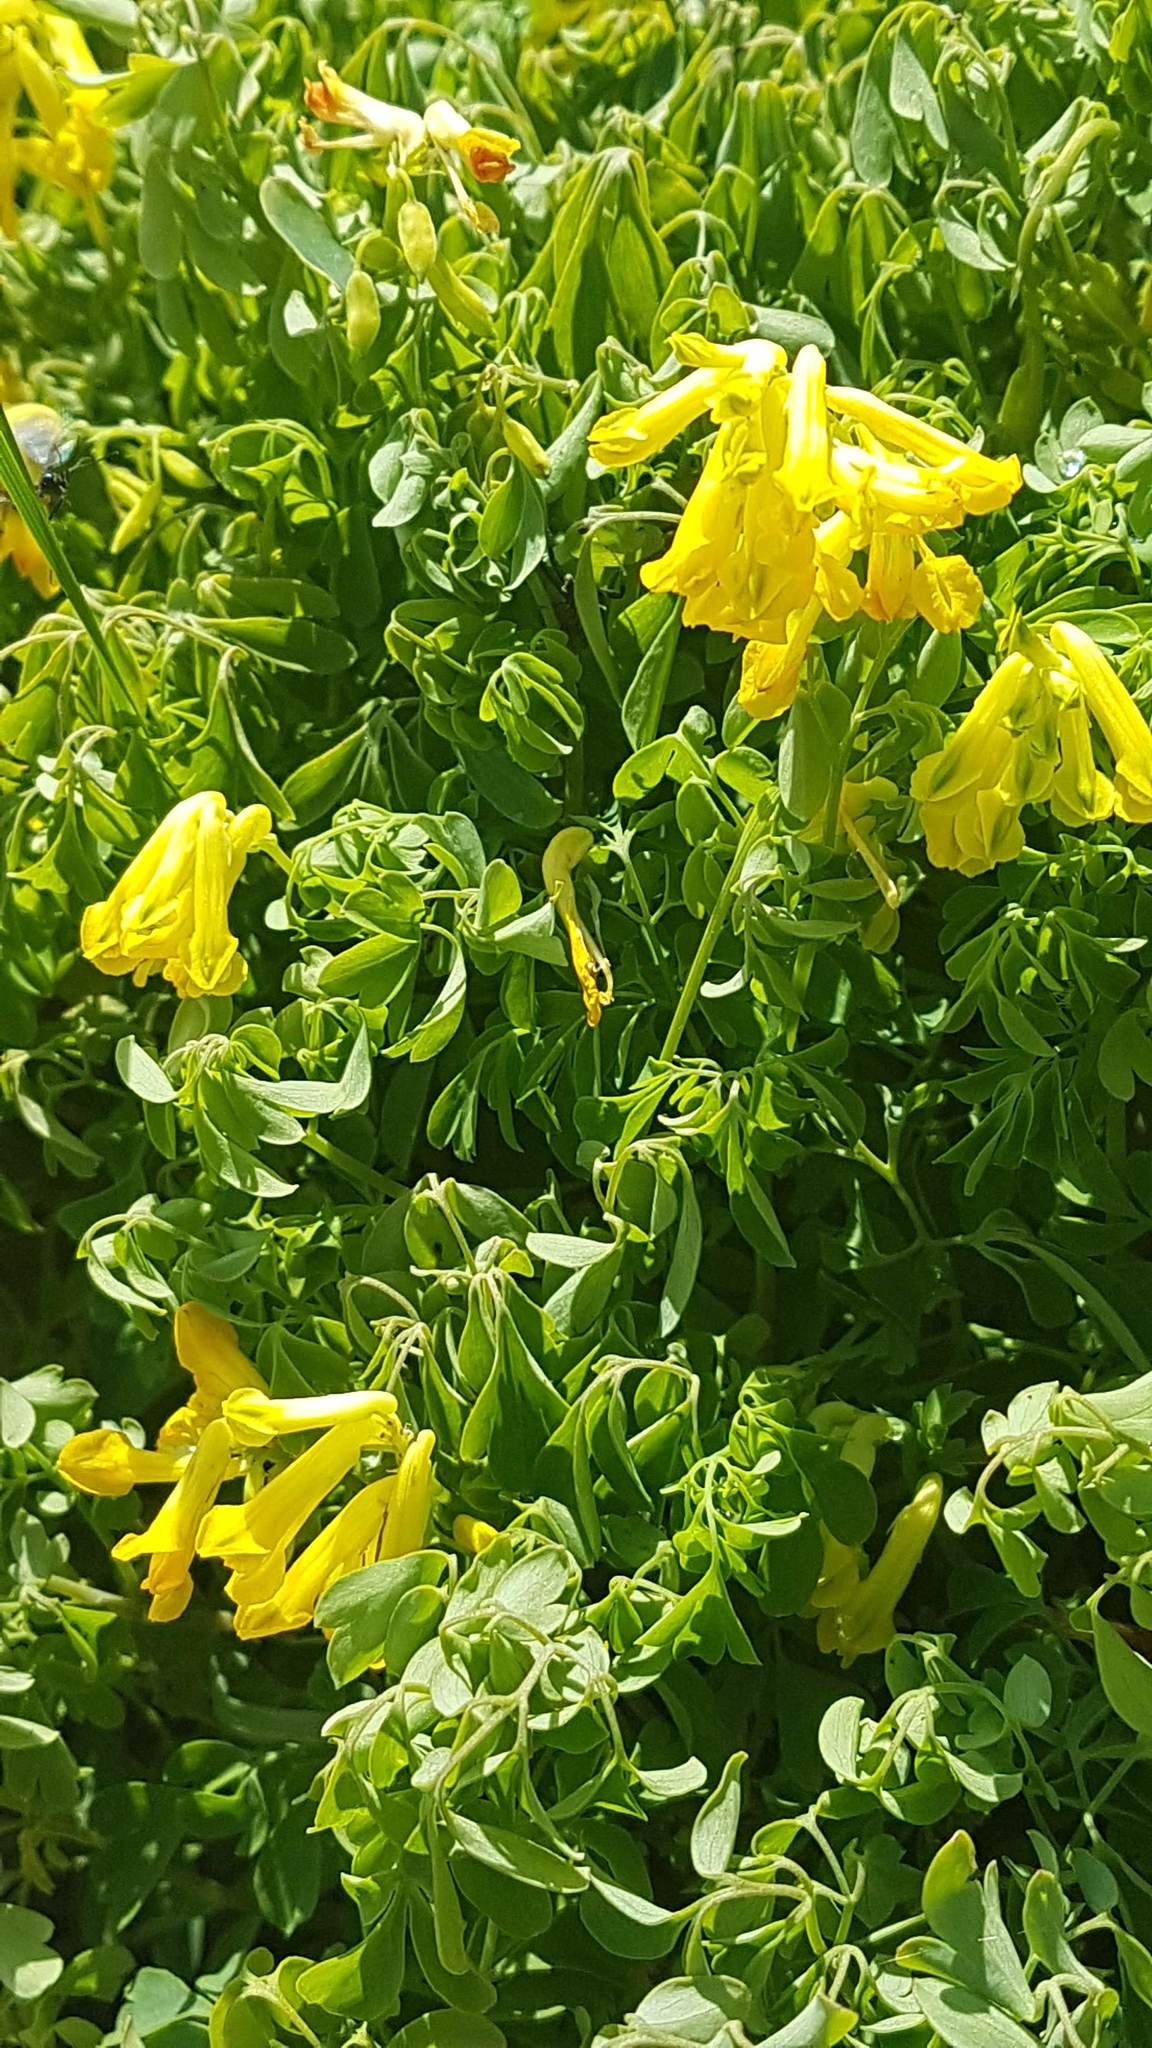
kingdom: Plantae
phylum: Tracheophyta
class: Magnoliopsida
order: Ranunculales
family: Papaveraceae
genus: Pseudofumaria
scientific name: Pseudofumaria lutea
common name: Yellow corydalis
